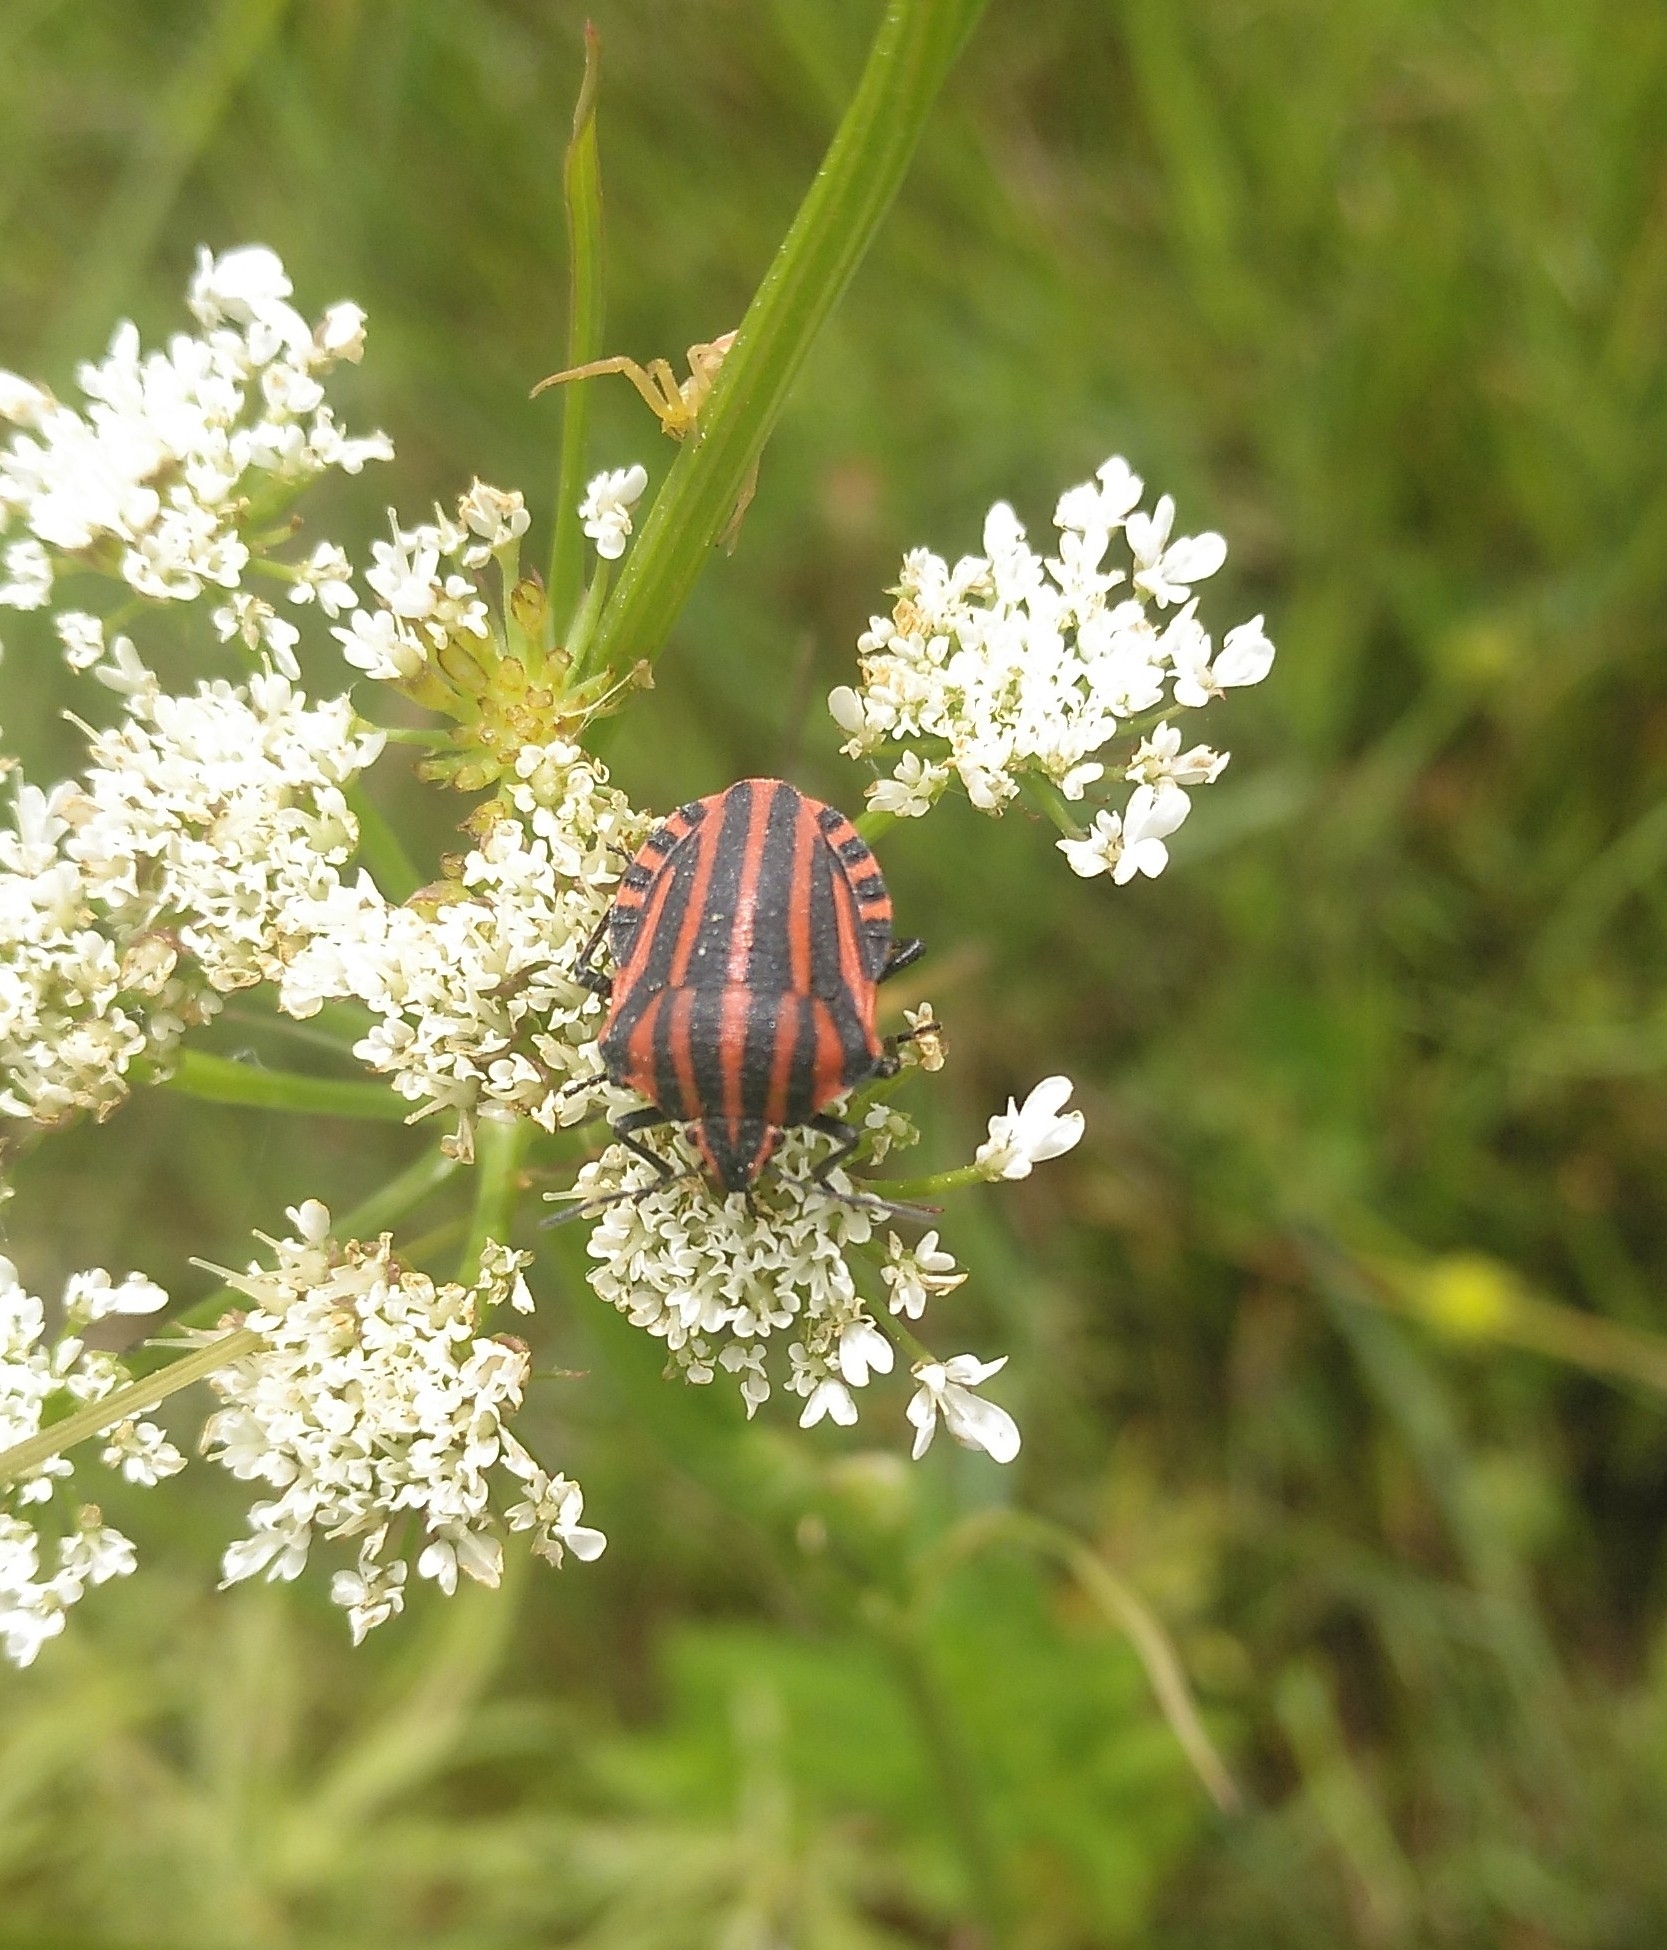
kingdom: Animalia
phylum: Arthropoda
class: Insecta
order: Hemiptera
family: Pentatomidae
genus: Graphosoma
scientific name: Graphosoma italicum
